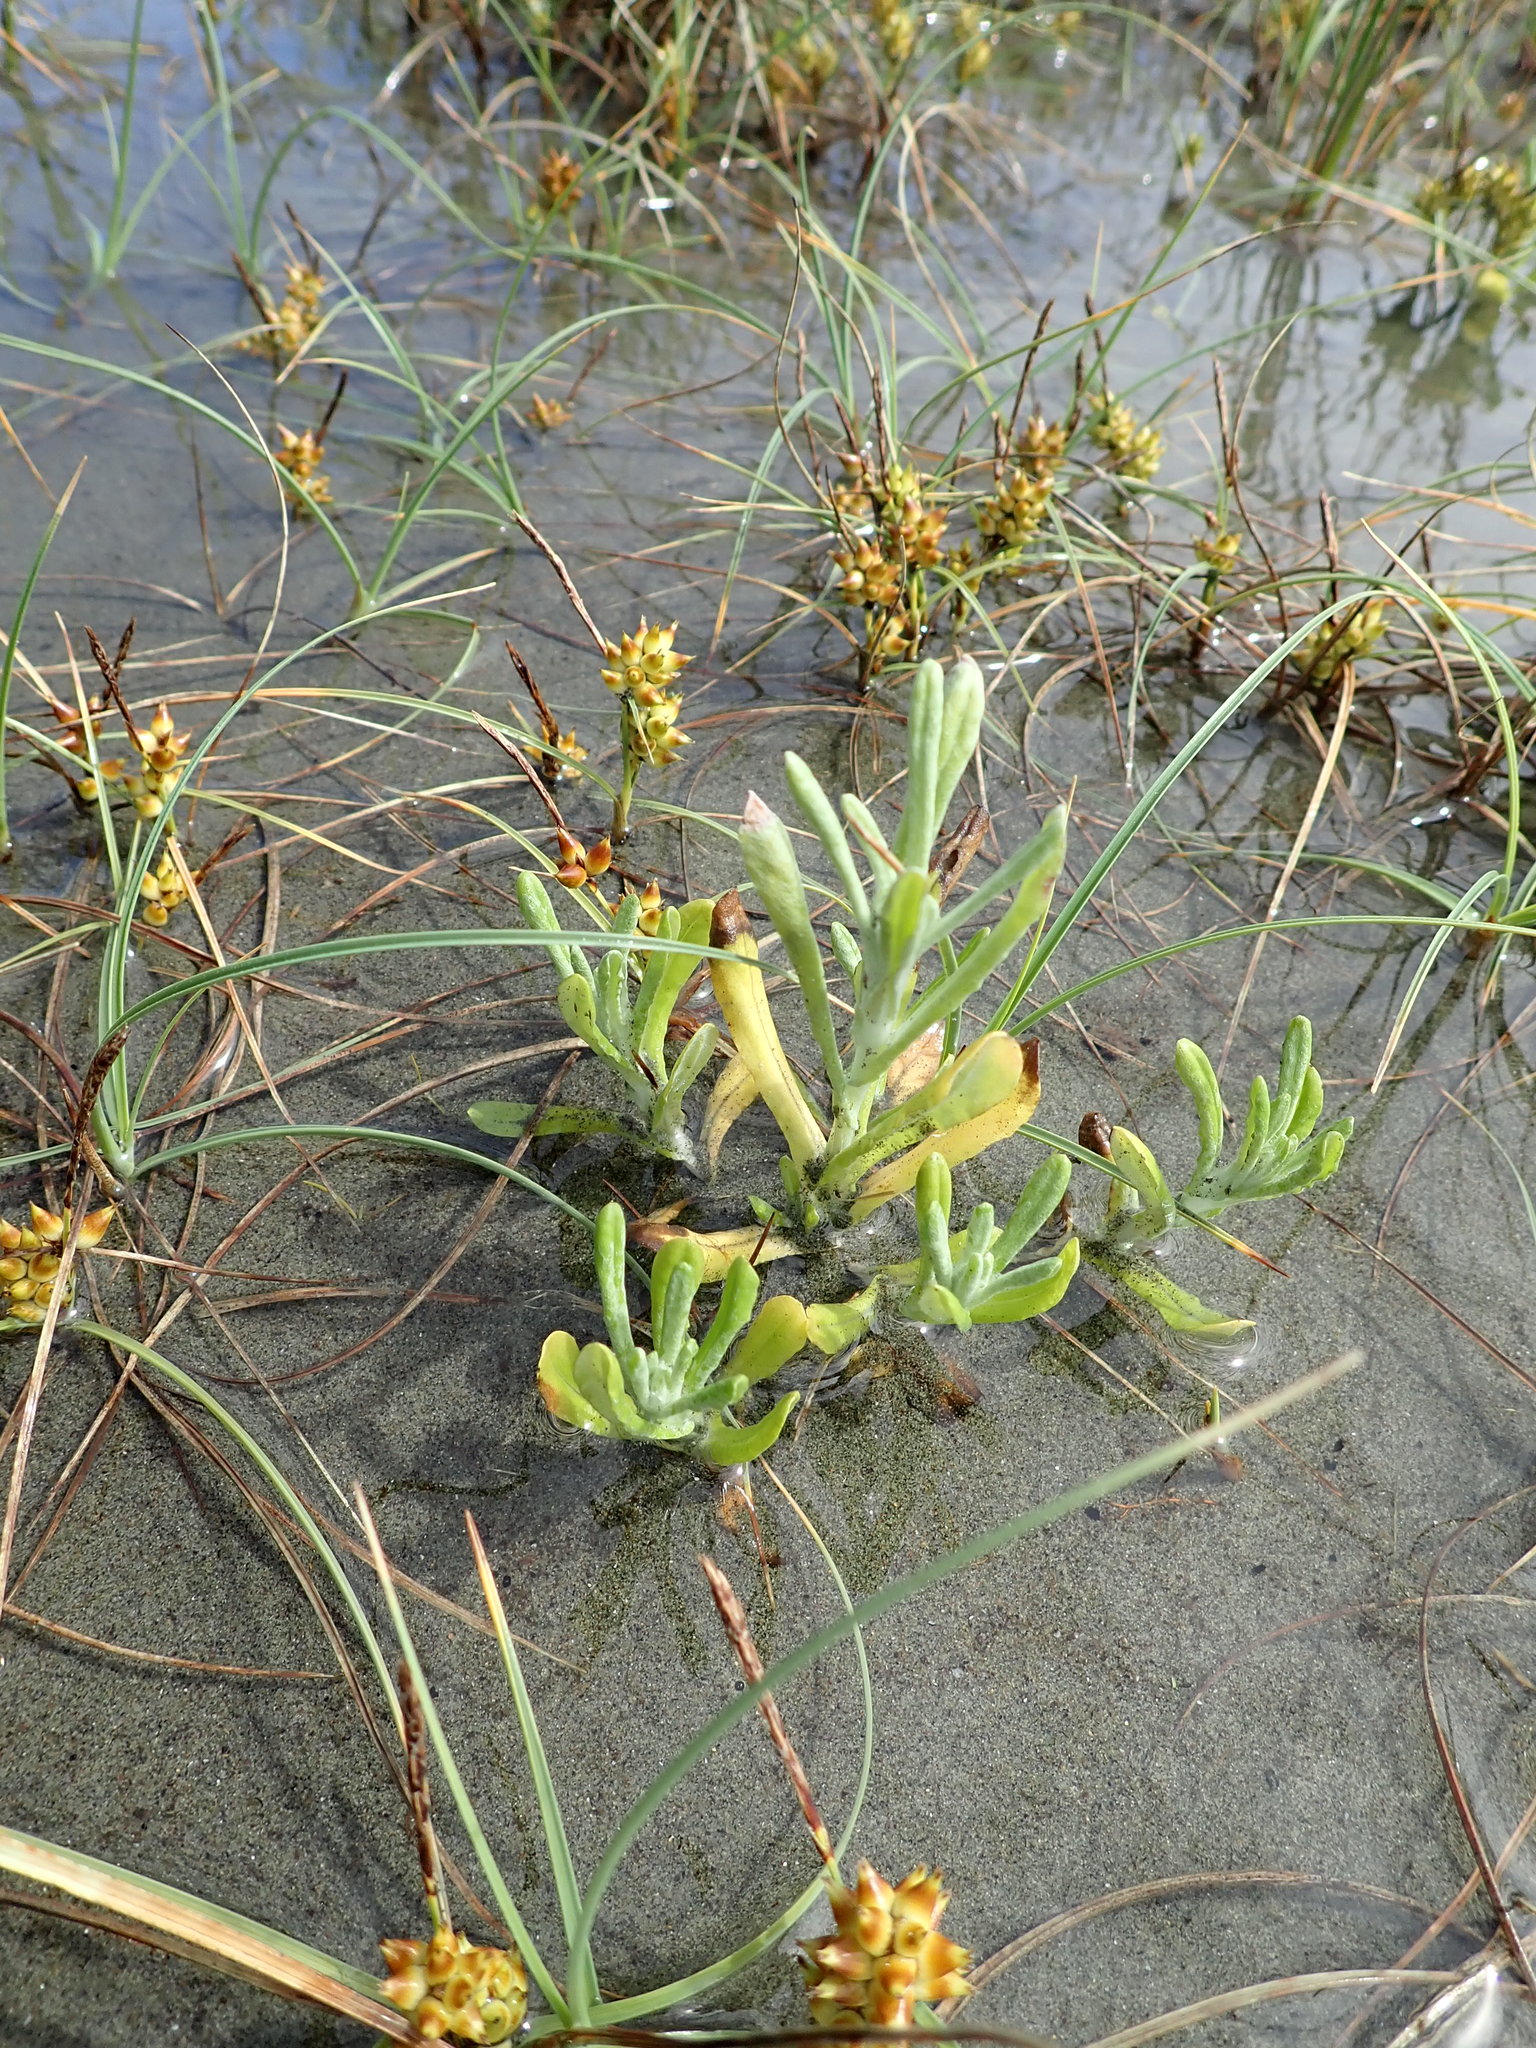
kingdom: Plantae
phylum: Tracheophyta
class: Magnoliopsida
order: Asterales
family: Asteraceae
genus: Helichrysum
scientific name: Helichrysum luteoalbum
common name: Daisy
